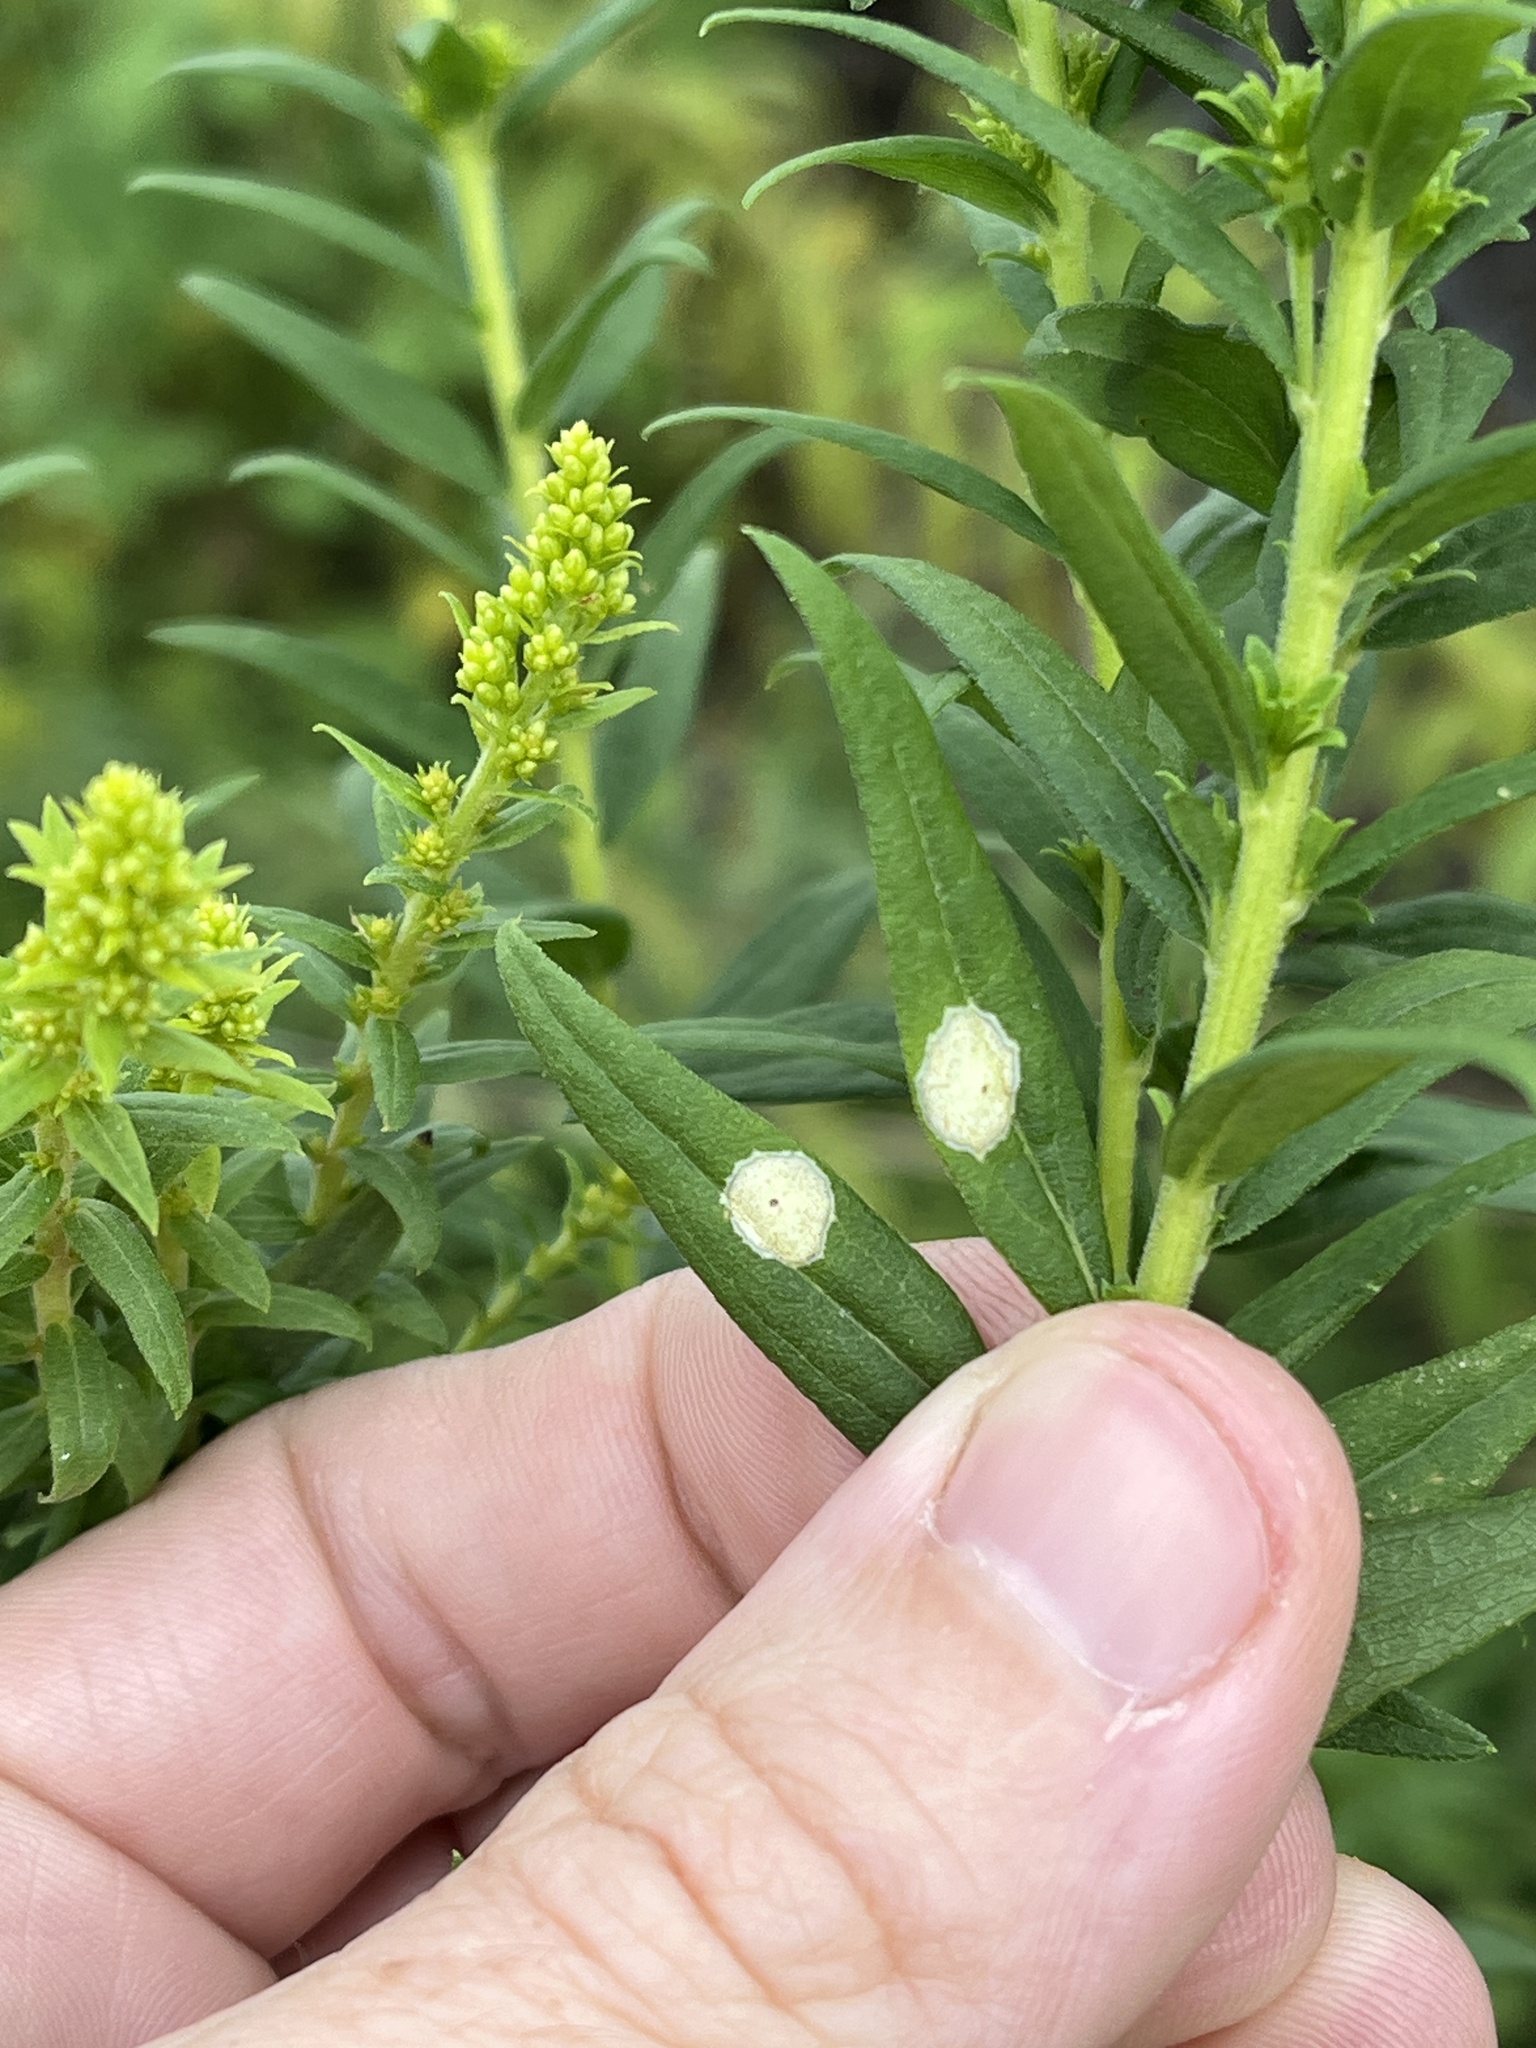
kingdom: Animalia
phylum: Arthropoda
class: Insecta
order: Diptera
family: Cecidomyiidae
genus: Asteromyia
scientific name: Asteromyia carbonifera
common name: Carbonifera goldenrod gall midge
